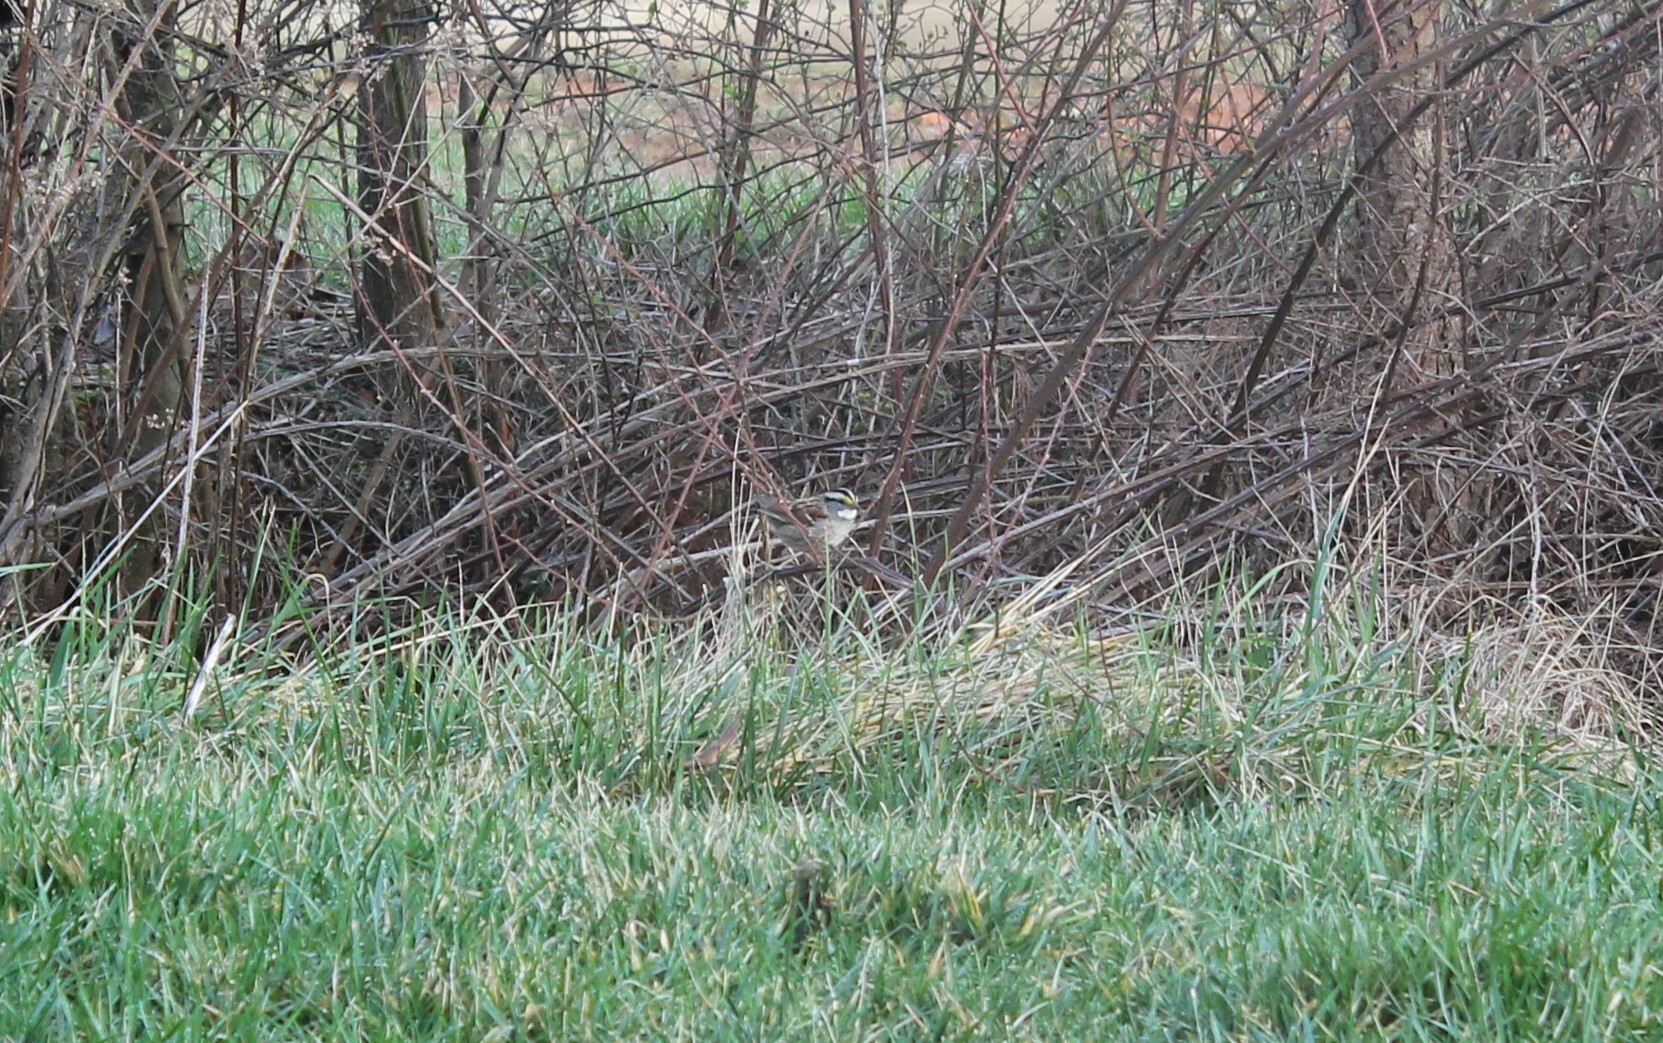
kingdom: Animalia
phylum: Chordata
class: Aves
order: Passeriformes
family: Passerellidae
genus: Zonotrichia
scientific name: Zonotrichia albicollis
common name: White-throated sparrow
